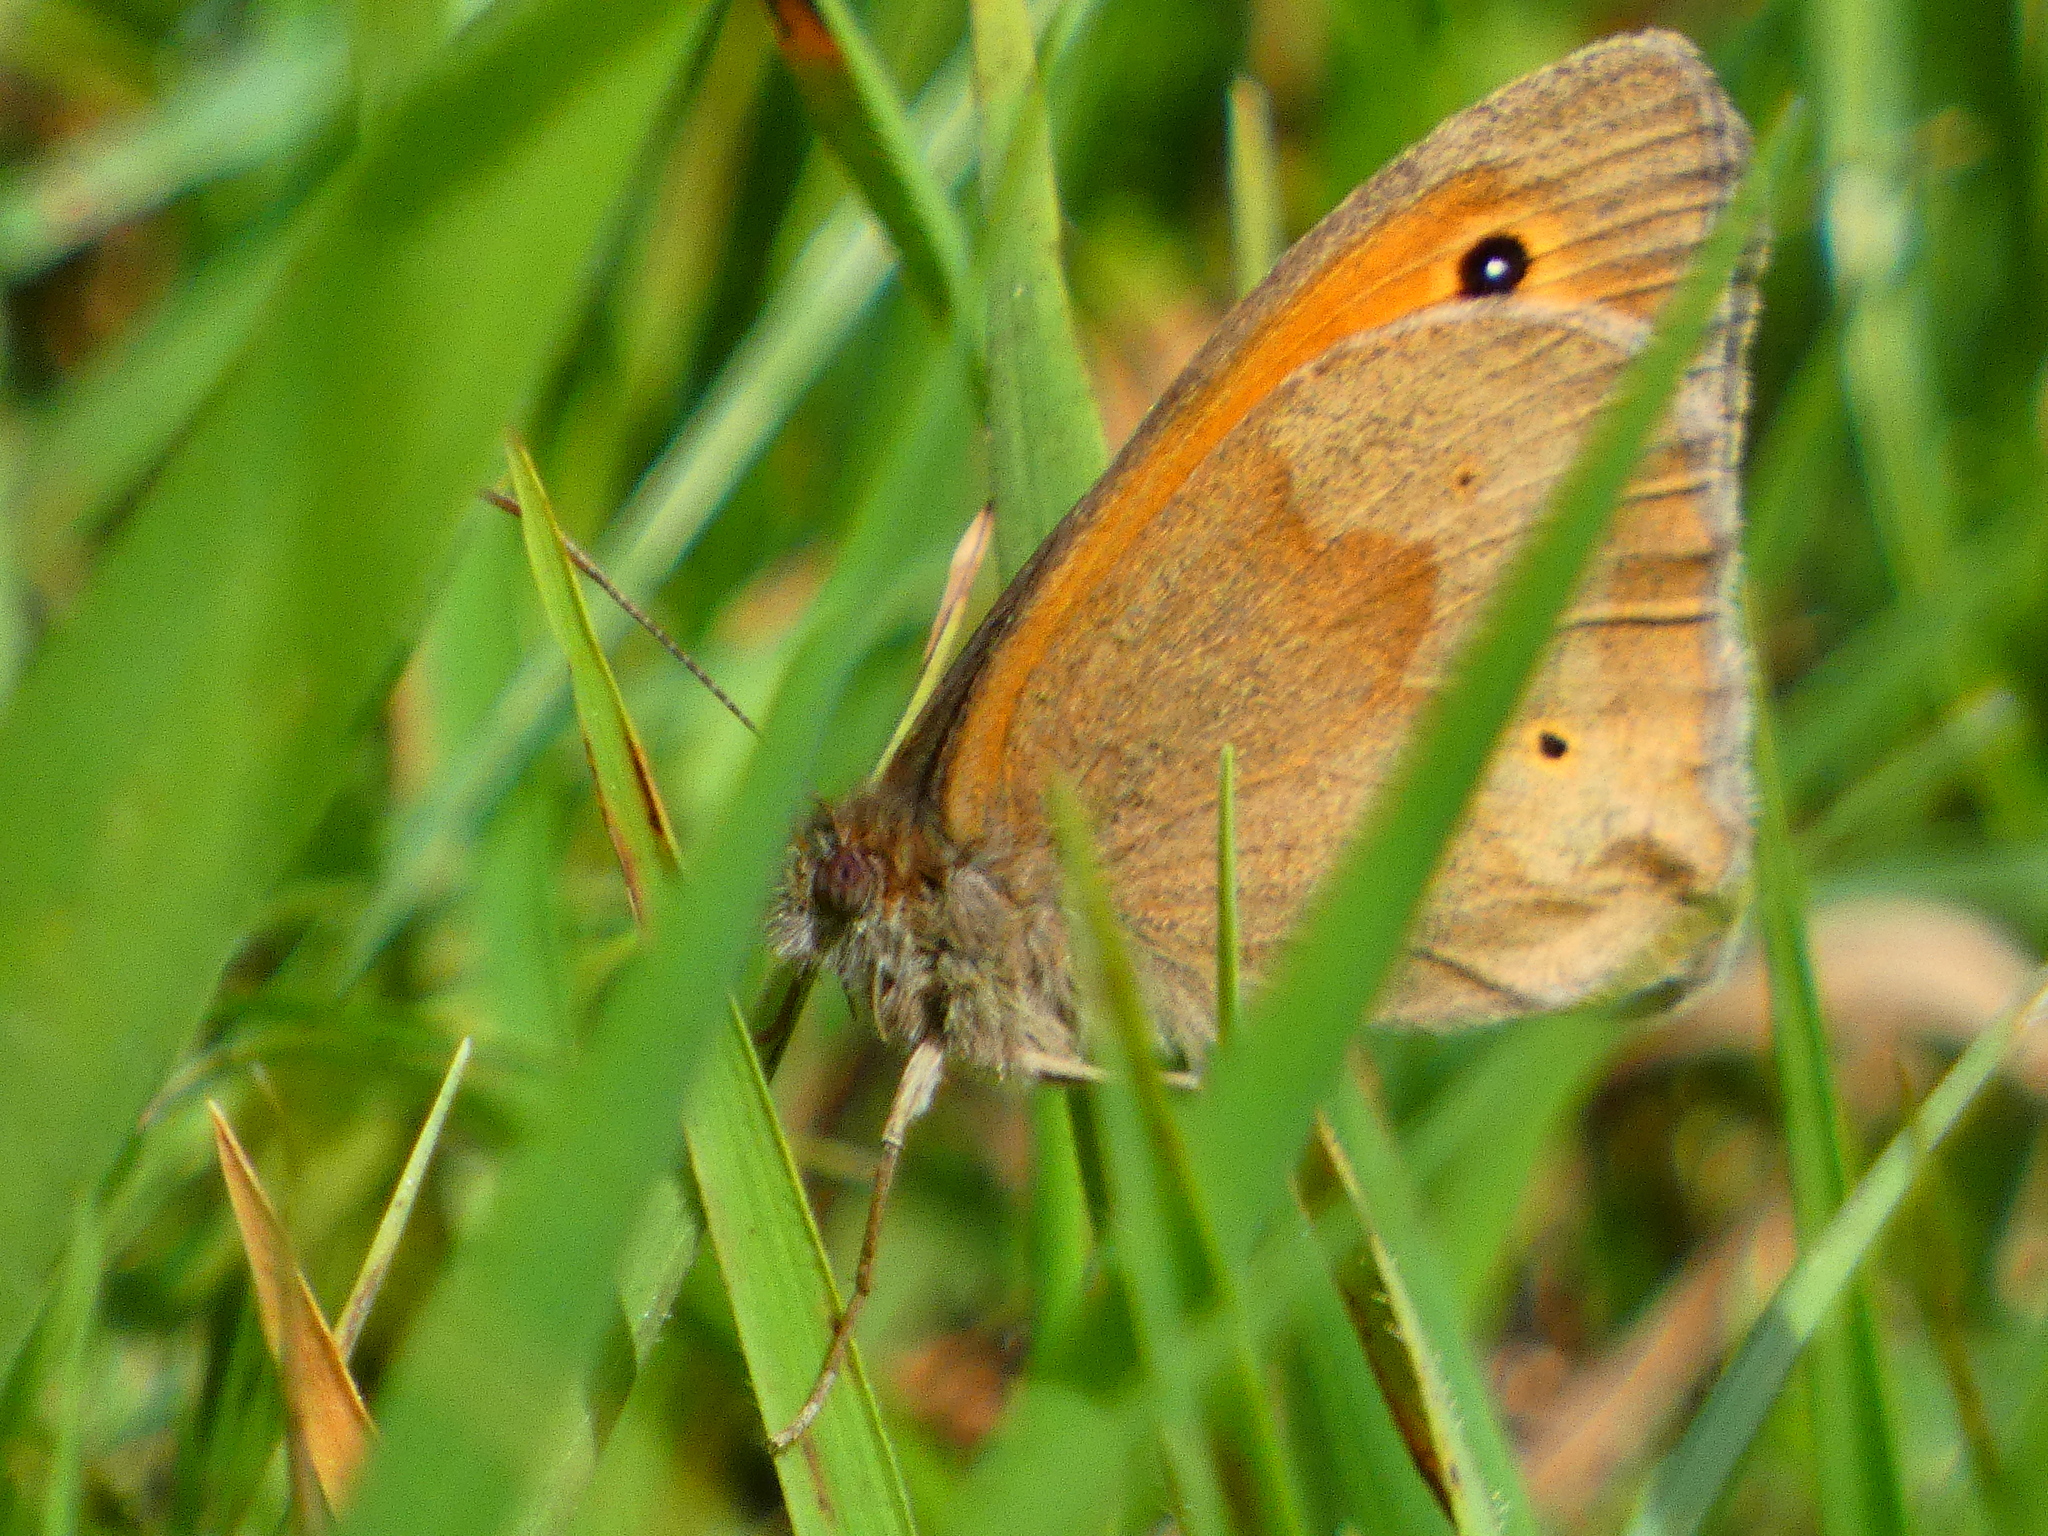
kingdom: Animalia
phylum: Arthropoda
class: Insecta
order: Lepidoptera
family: Nymphalidae
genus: Maniola
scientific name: Maniola jurtina
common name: Meadow brown
